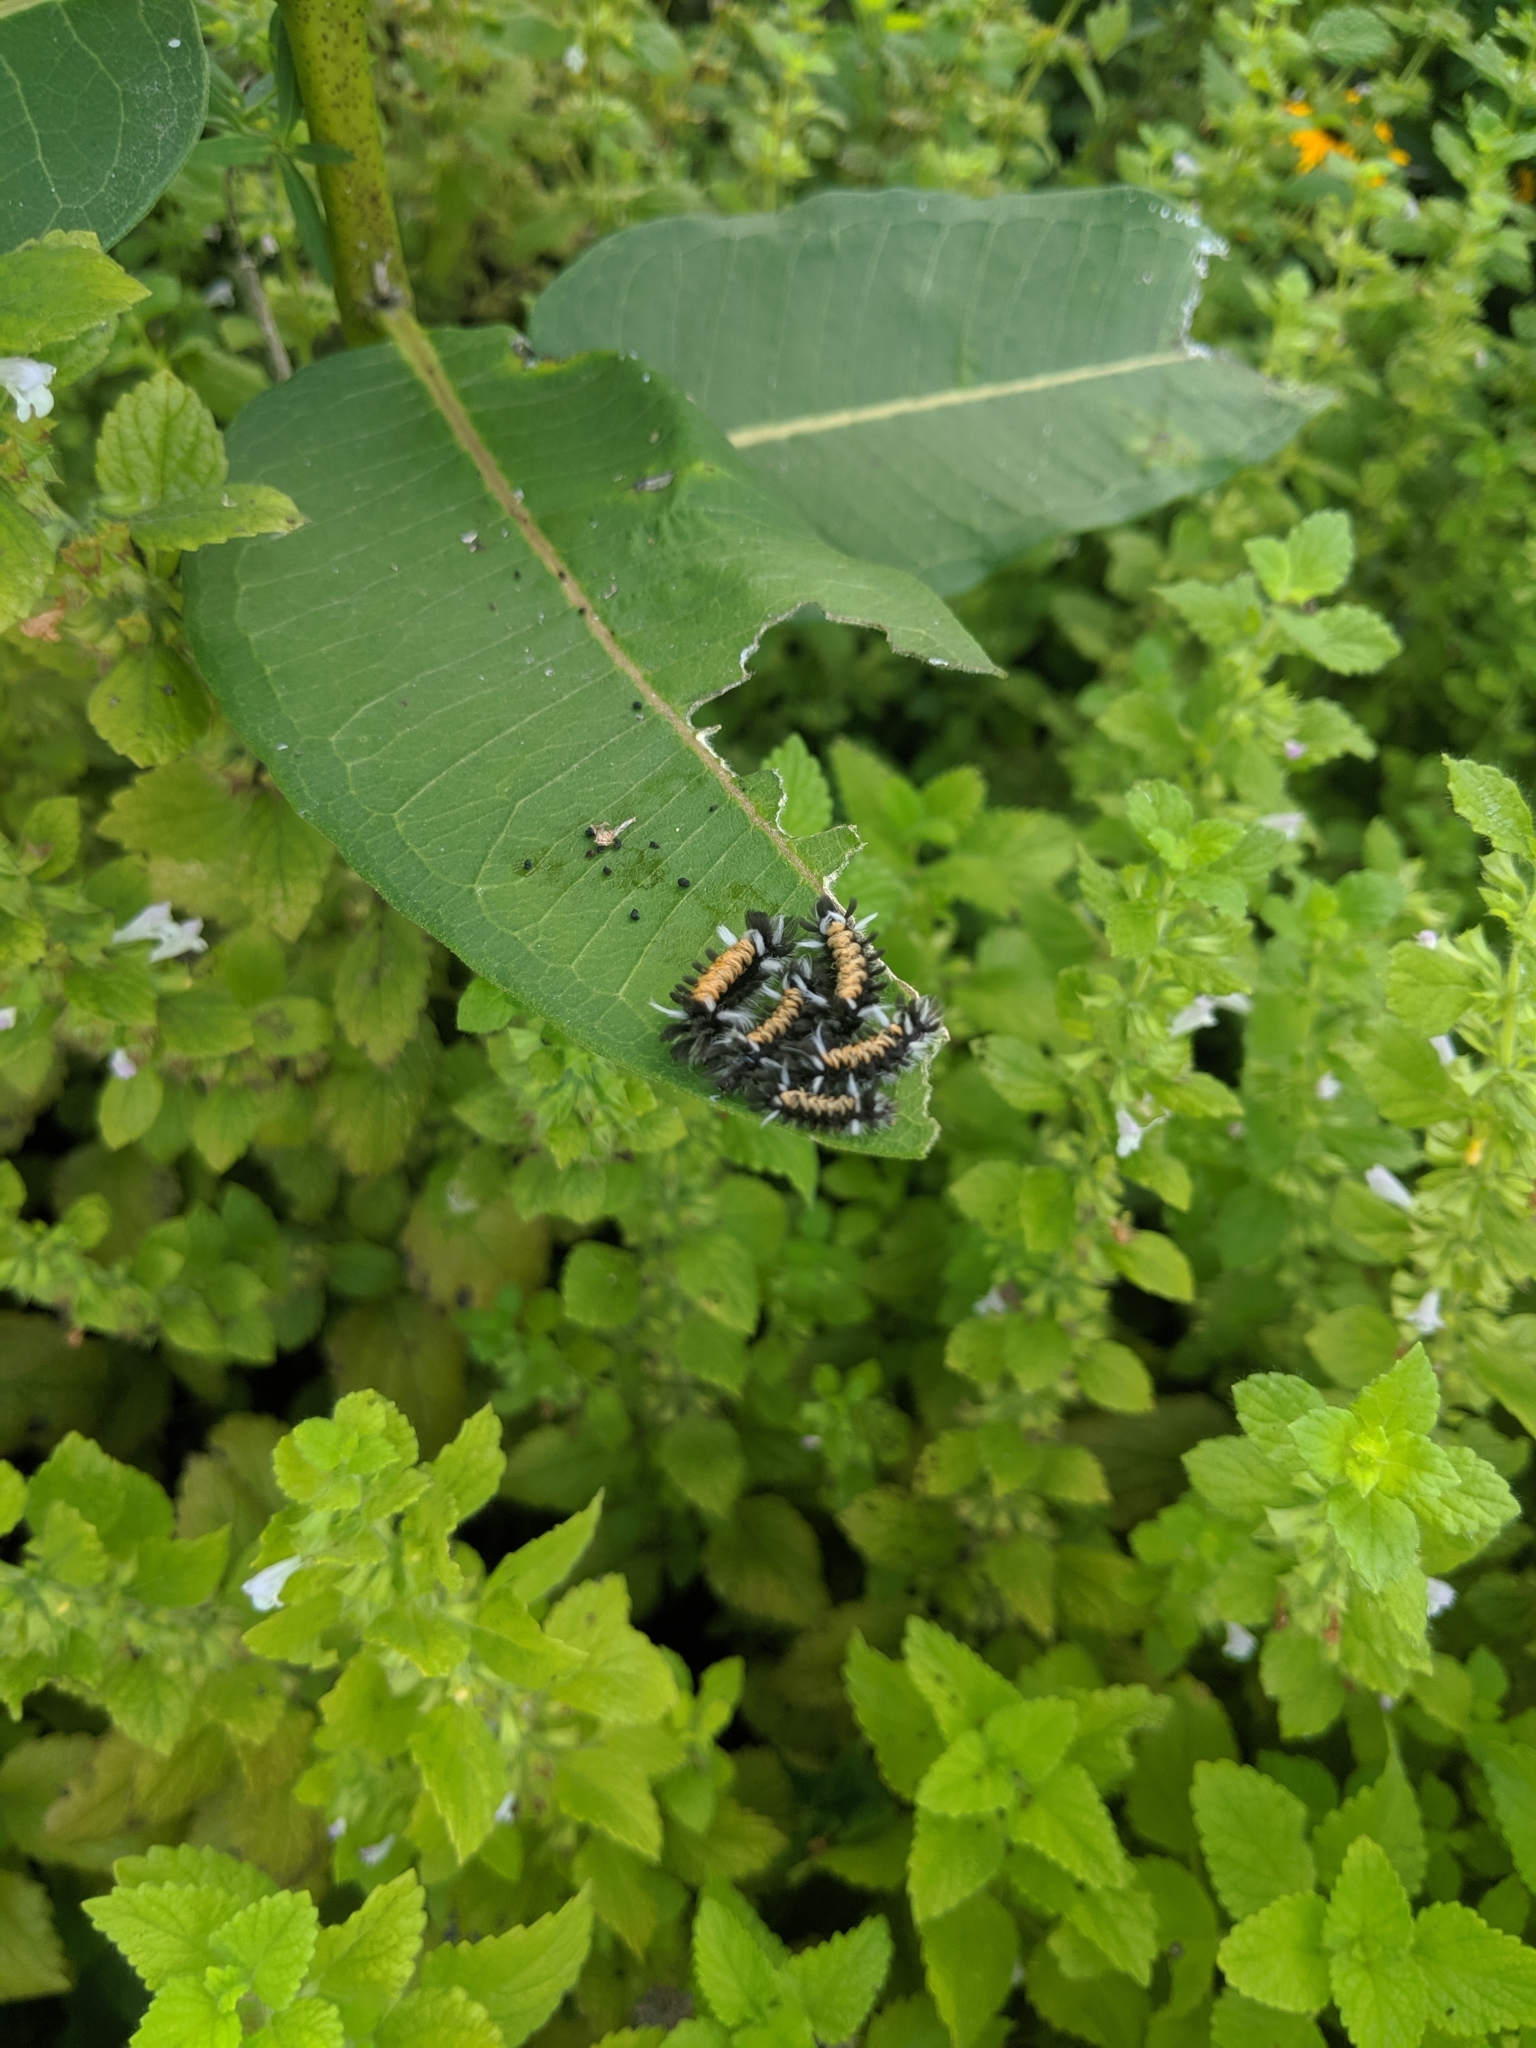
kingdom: Animalia
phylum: Arthropoda
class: Insecta
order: Lepidoptera
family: Erebidae
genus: Euchaetes
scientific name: Euchaetes egle
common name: Milkweed tussock moth
